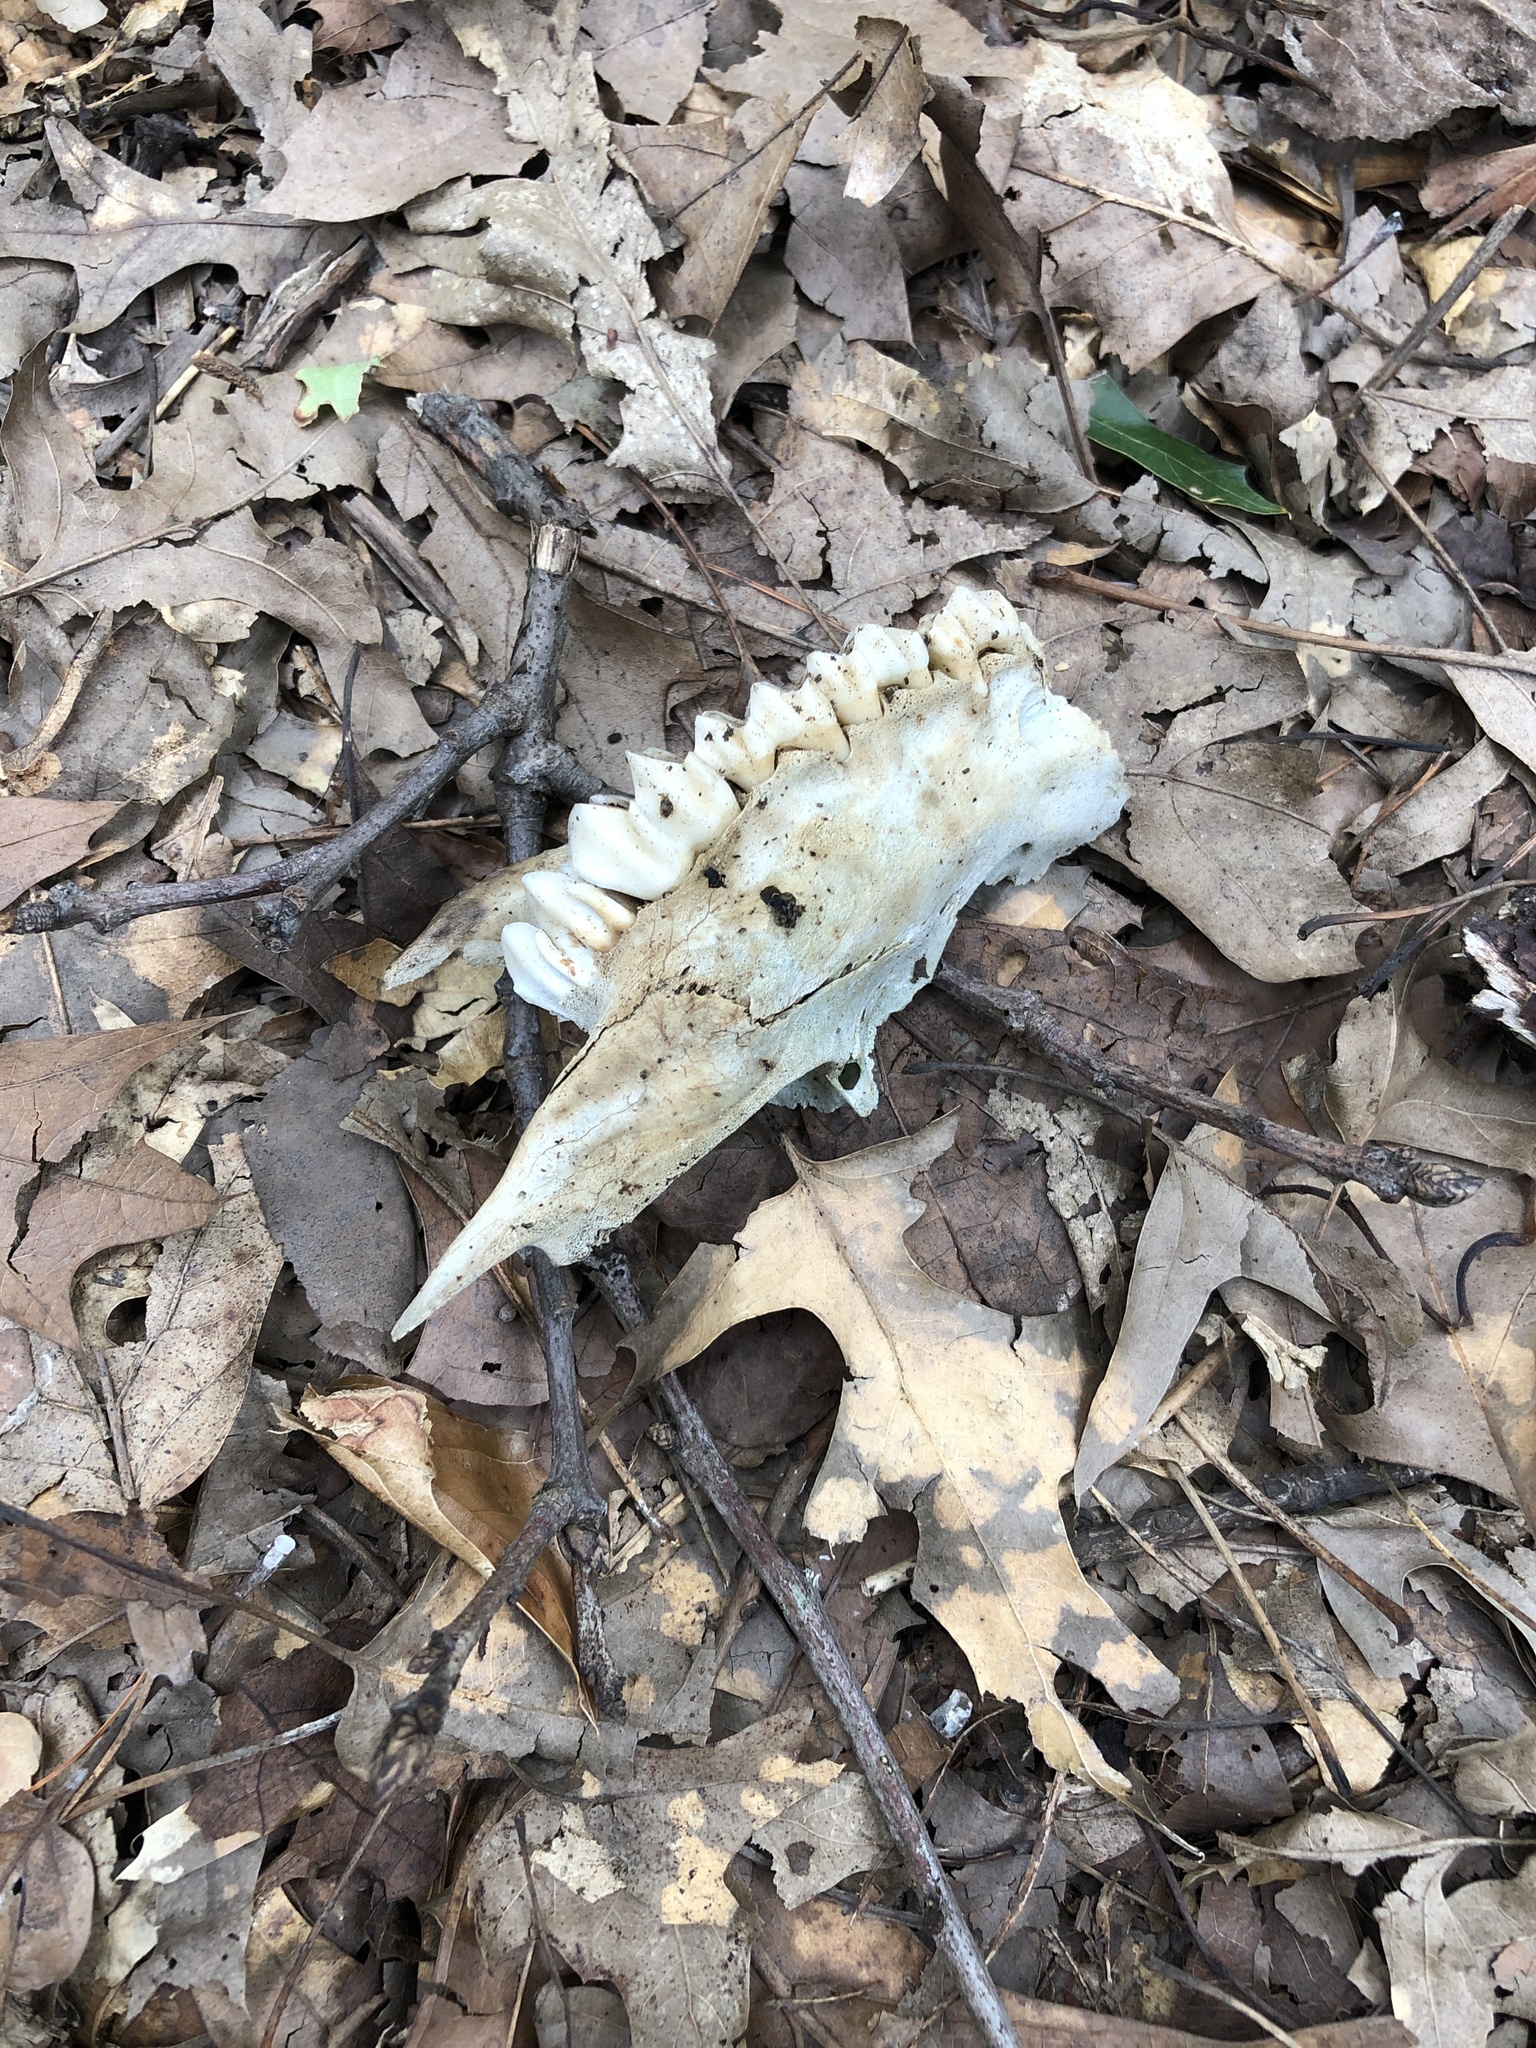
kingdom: Animalia
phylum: Chordata
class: Mammalia
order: Artiodactyla
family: Cervidae
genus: Odocoileus
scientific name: Odocoileus virginianus
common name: White-tailed deer
